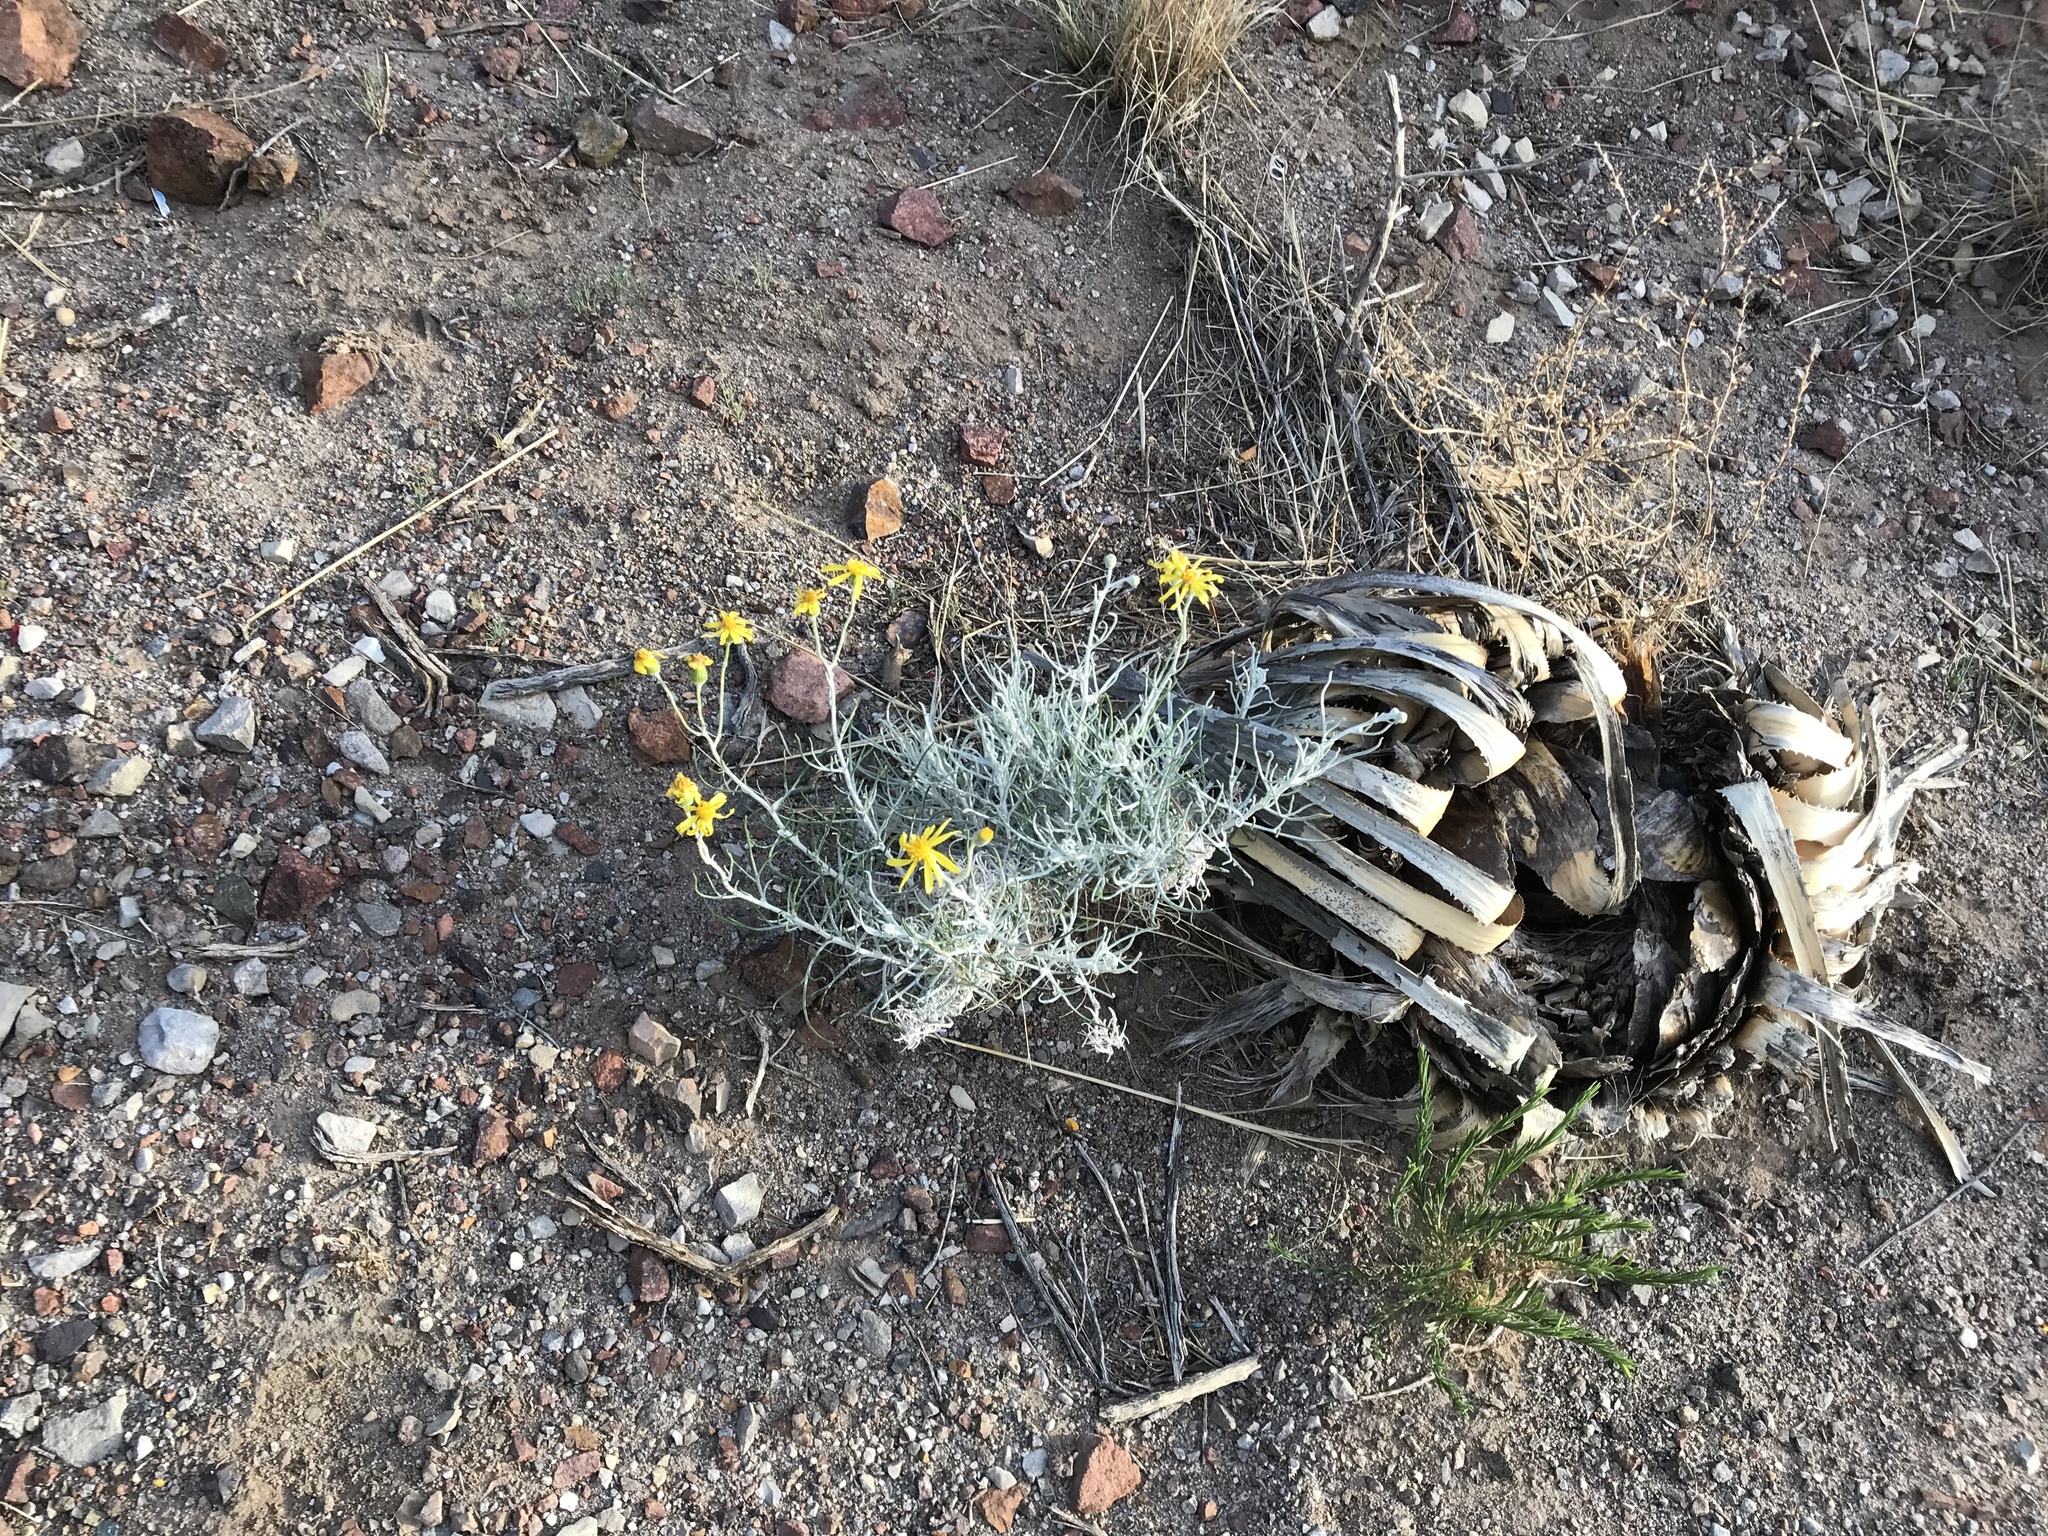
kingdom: Plantae
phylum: Tracheophyta
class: Magnoliopsida
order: Asterales
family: Asteraceae
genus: Senecio
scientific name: Senecio flaccidus
